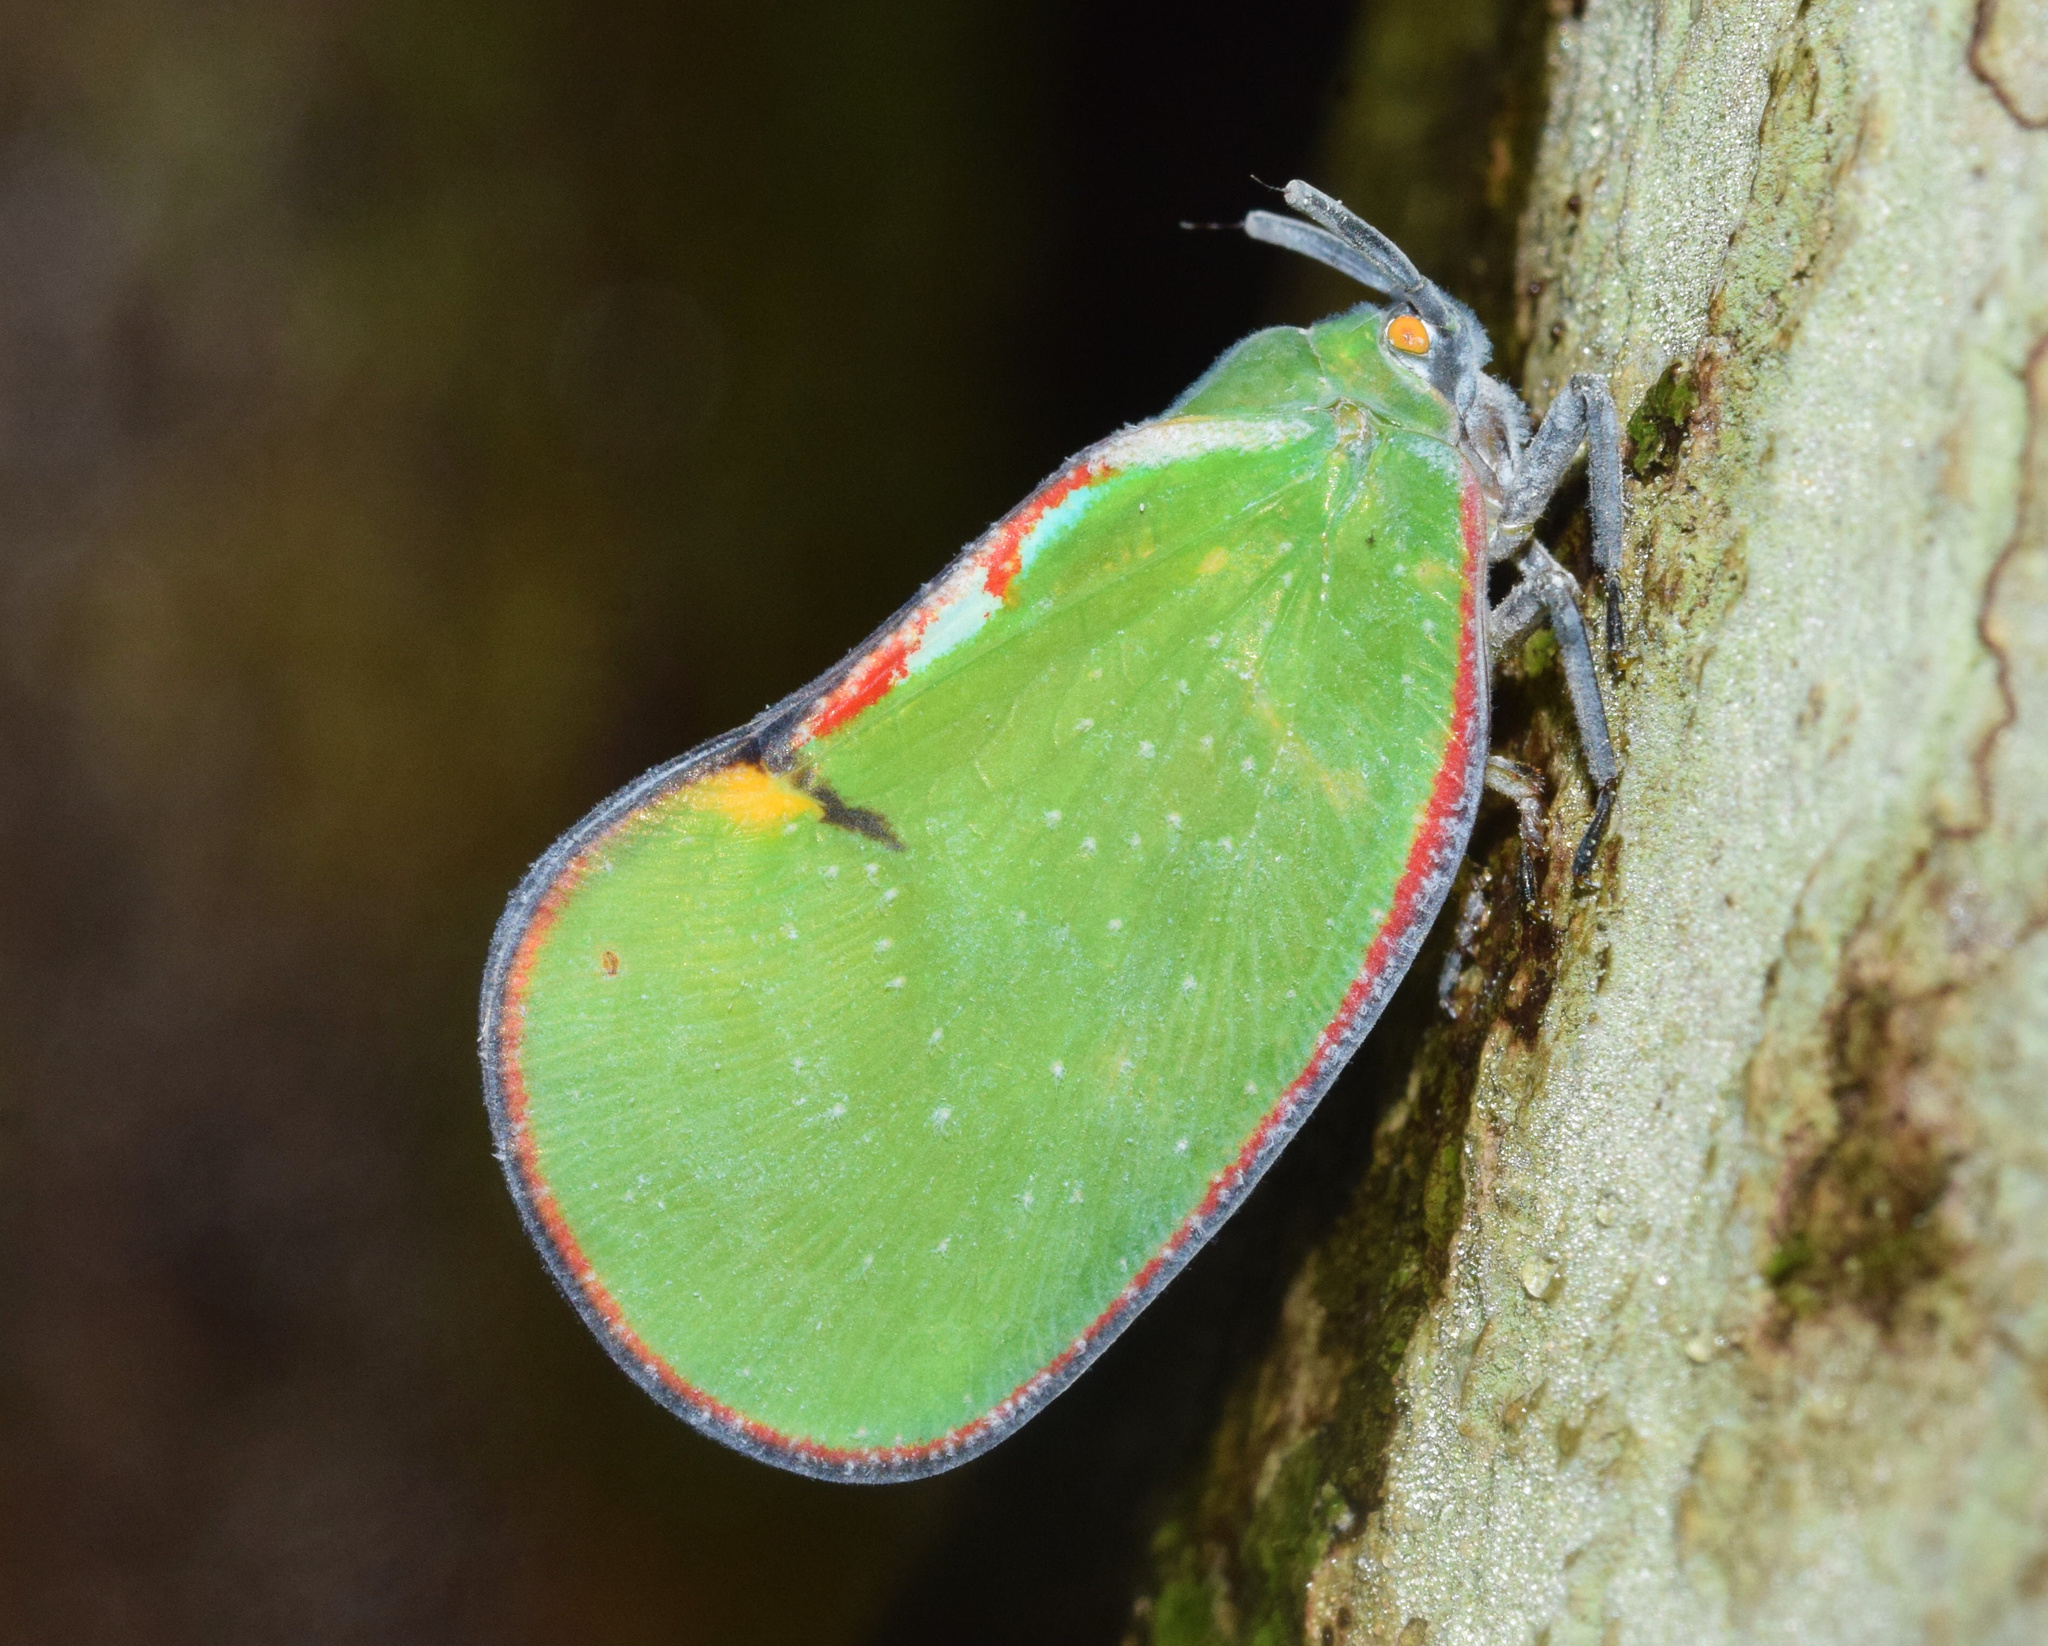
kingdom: Animalia
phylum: Arthropoda
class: Insecta
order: Hemiptera
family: Flatidae
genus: Ityraea
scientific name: Ityraea nigrocincta
